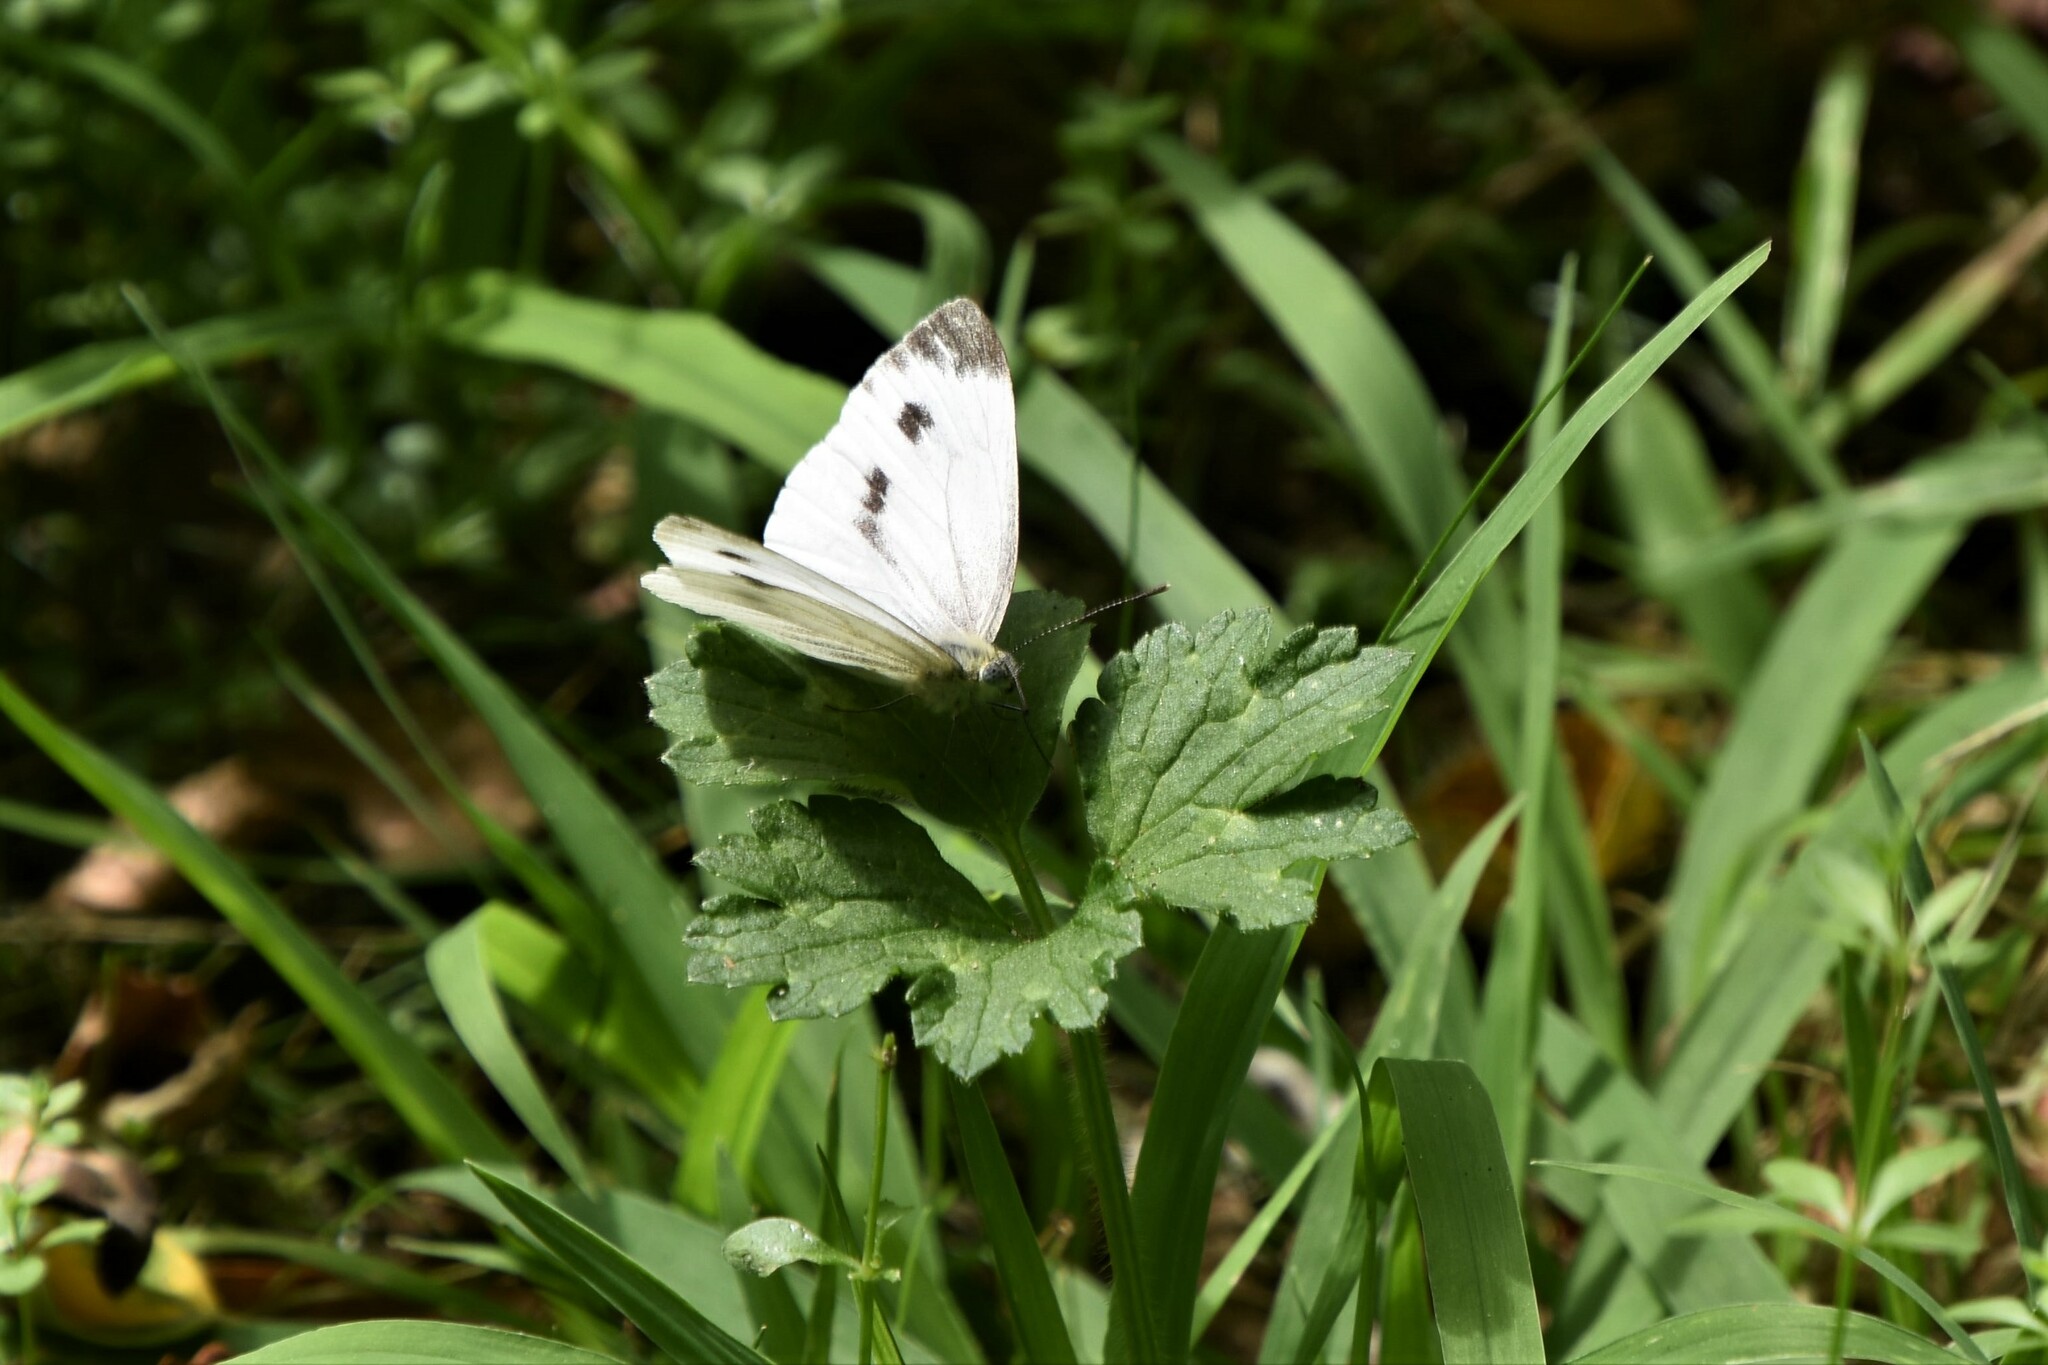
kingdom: Animalia
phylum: Arthropoda
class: Insecta
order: Lepidoptera
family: Pieridae
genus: Pieris
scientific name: Pieris napi
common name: Green-veined white
